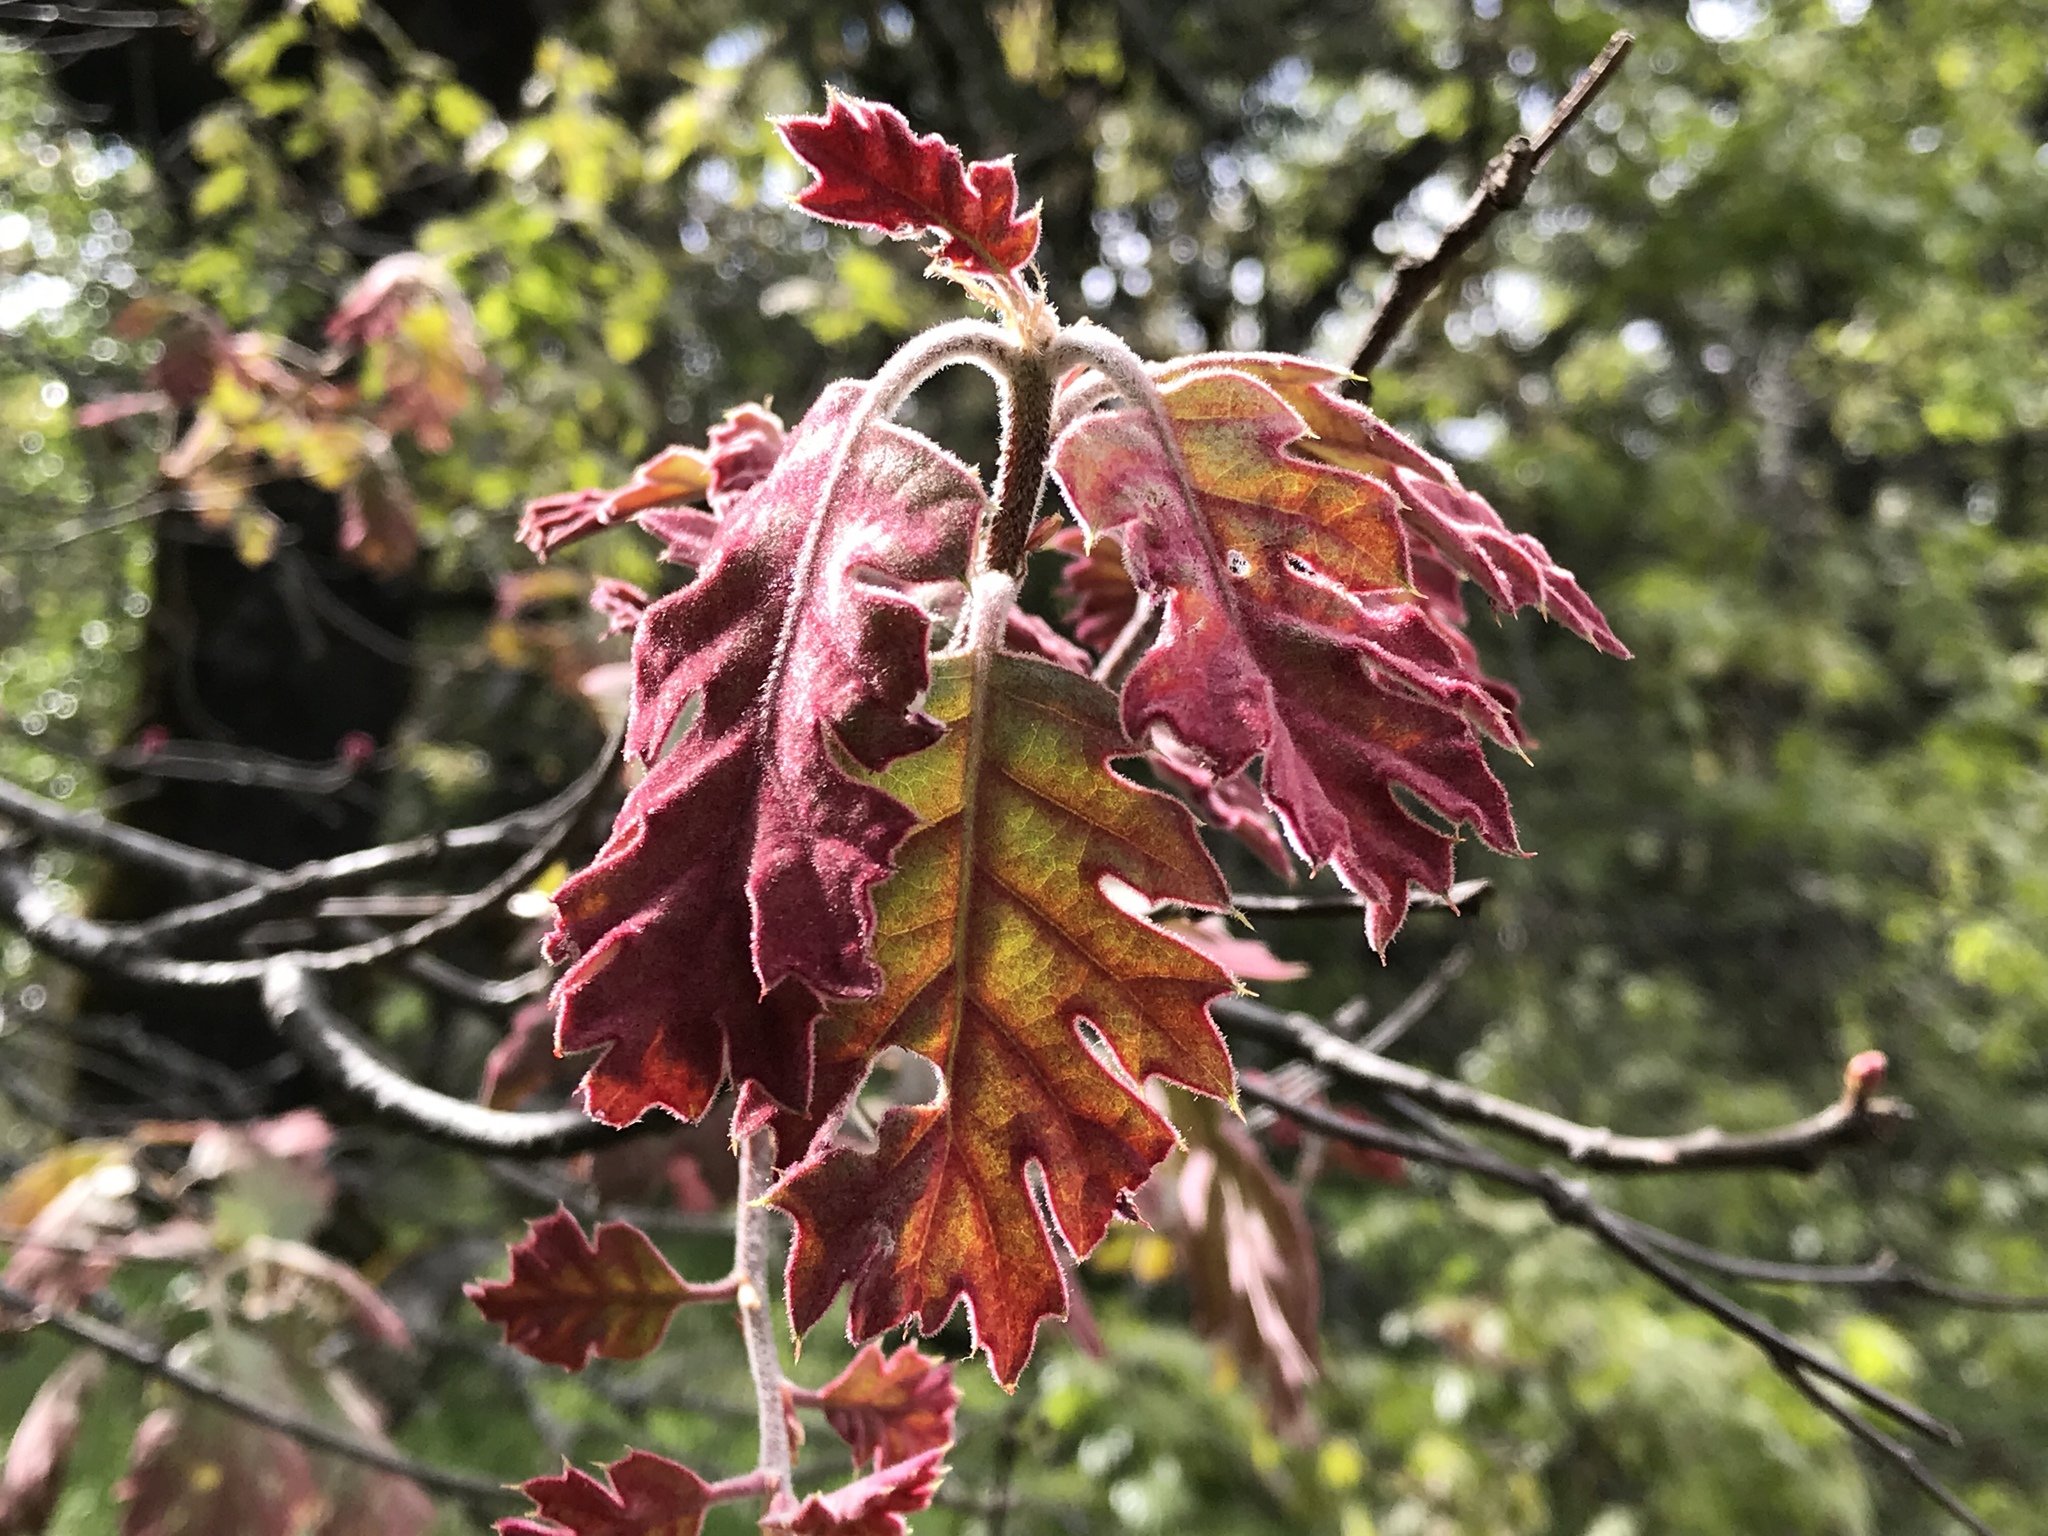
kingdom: Plantae
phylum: Tracheophyta
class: Magnoliopsida
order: Fagales
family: Fagaceae
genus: Quercus
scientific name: Quercus kelloggii
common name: California black oak
